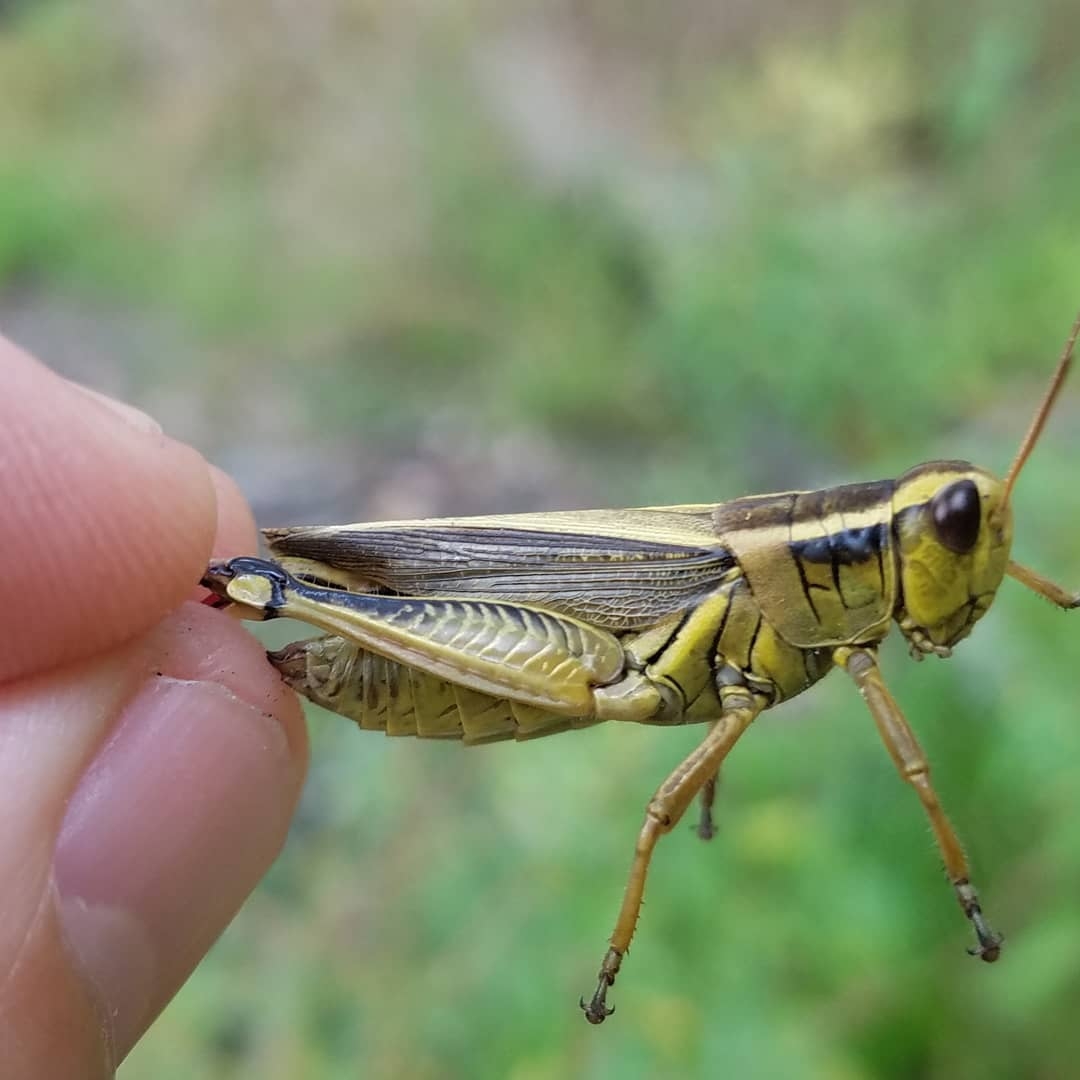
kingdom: Animalia
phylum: Arthropoda
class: Insecta
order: Orthoptera
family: Acrididae
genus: Melanoplus
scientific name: Melanoplus bivittatus
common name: Two-striped grasshopper
